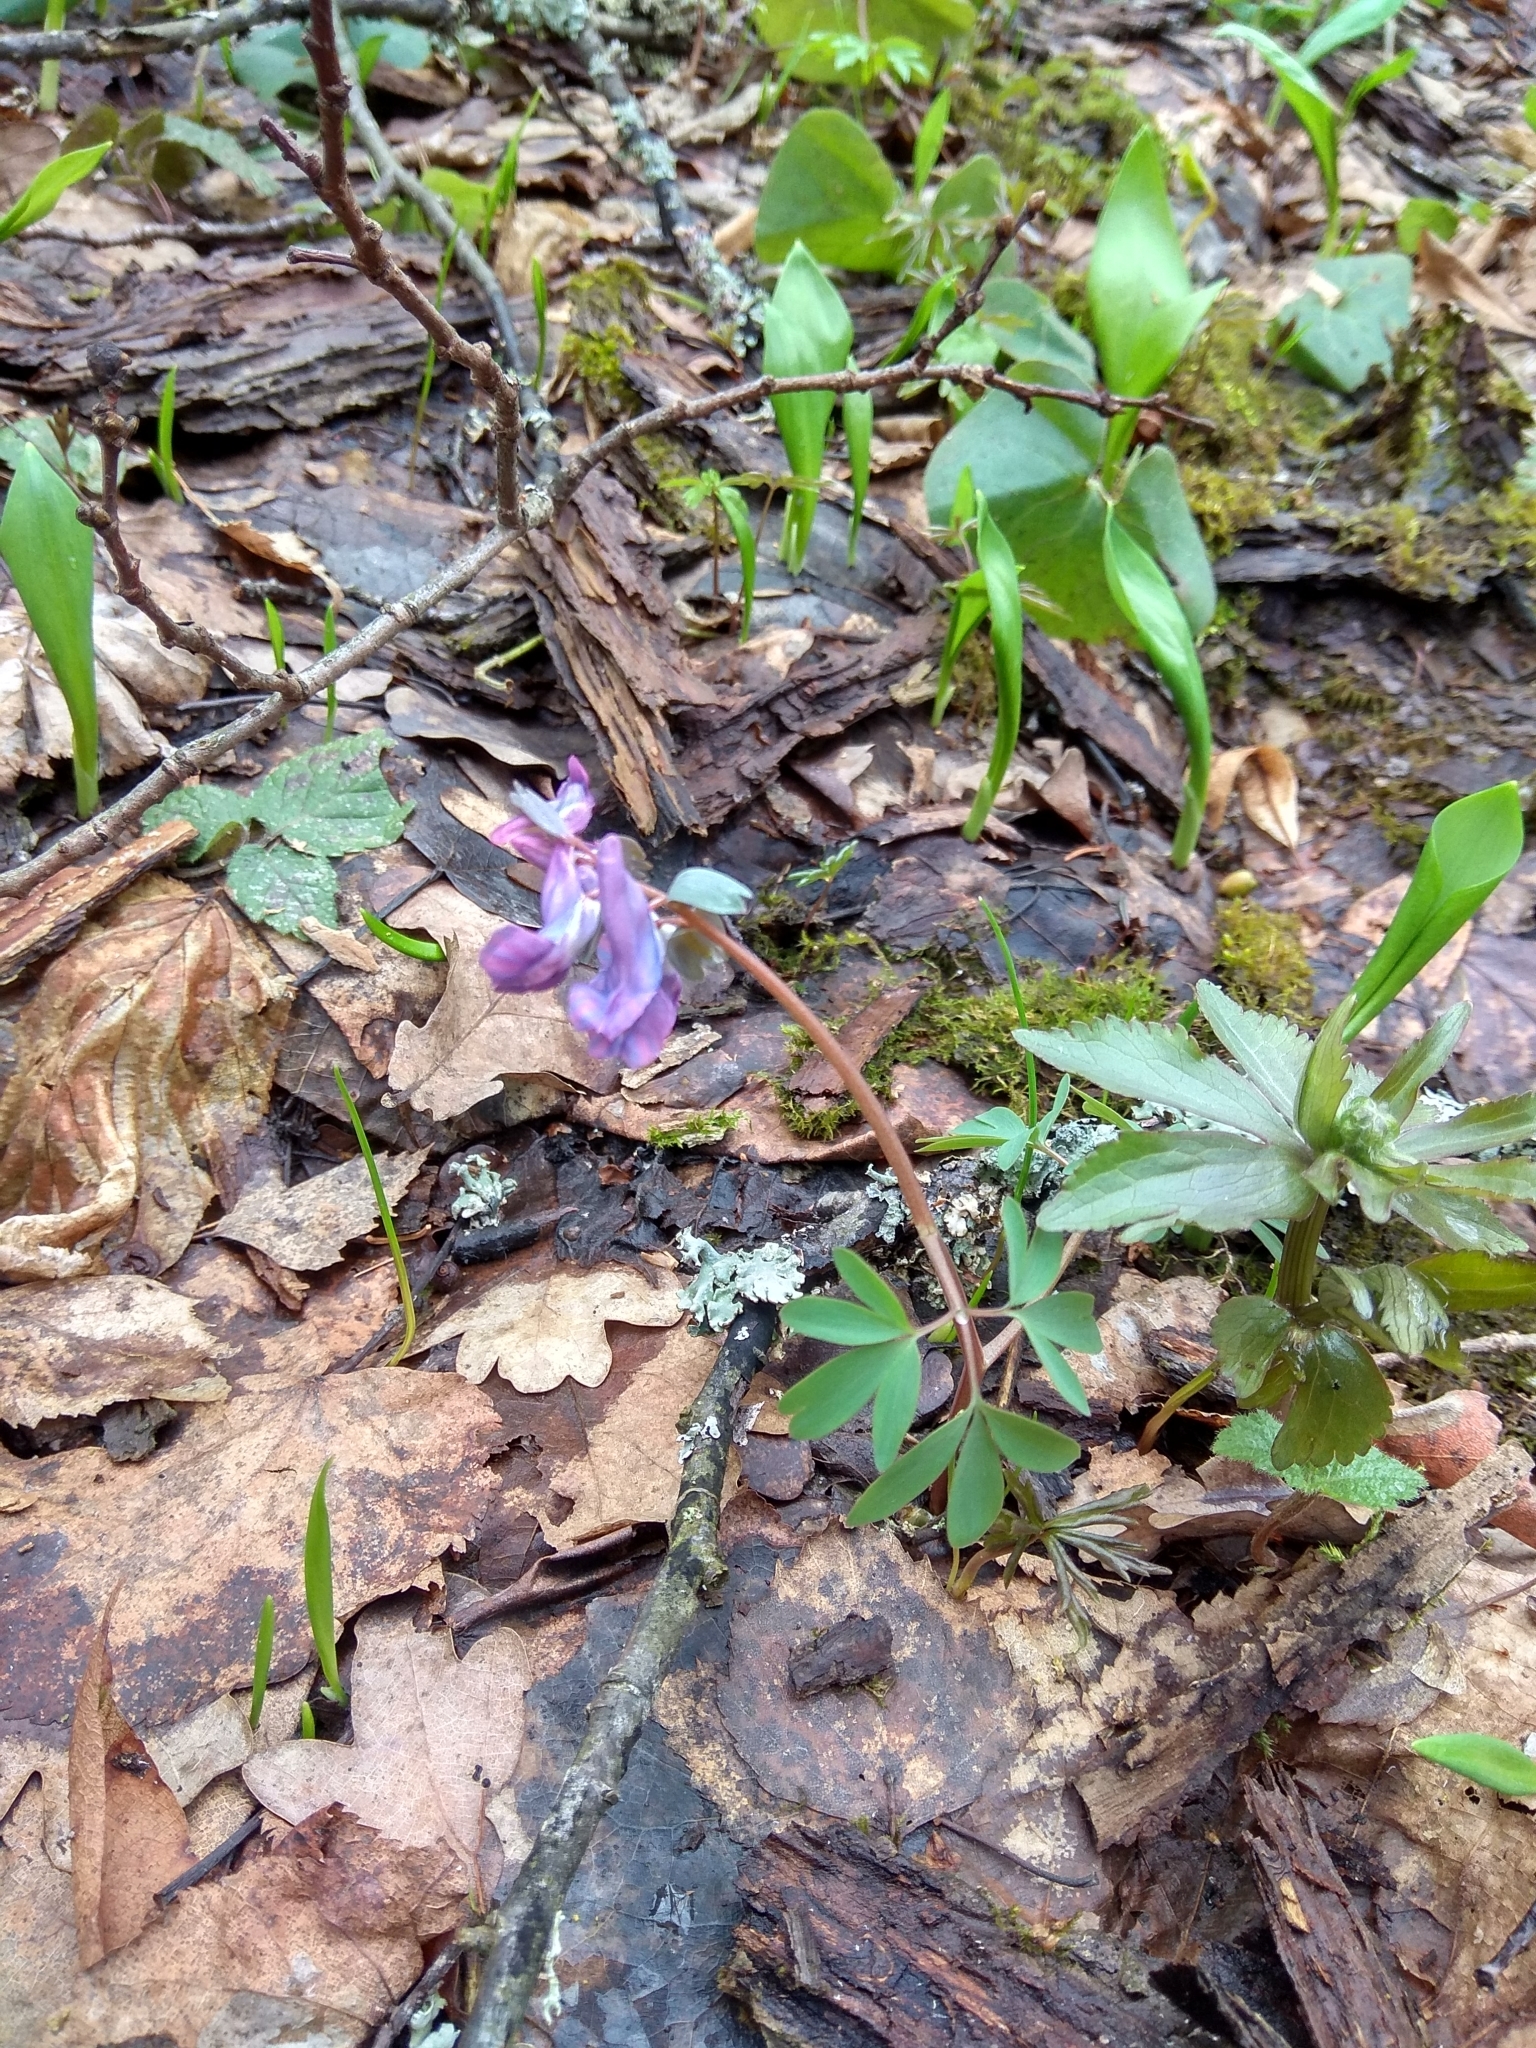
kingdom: Plantae
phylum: Tracheophyta
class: Magnoliopsida
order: Ranunculales
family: Papaveraceae
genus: Corydalis
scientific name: Corydalis solida
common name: Bird-in-a-bush
